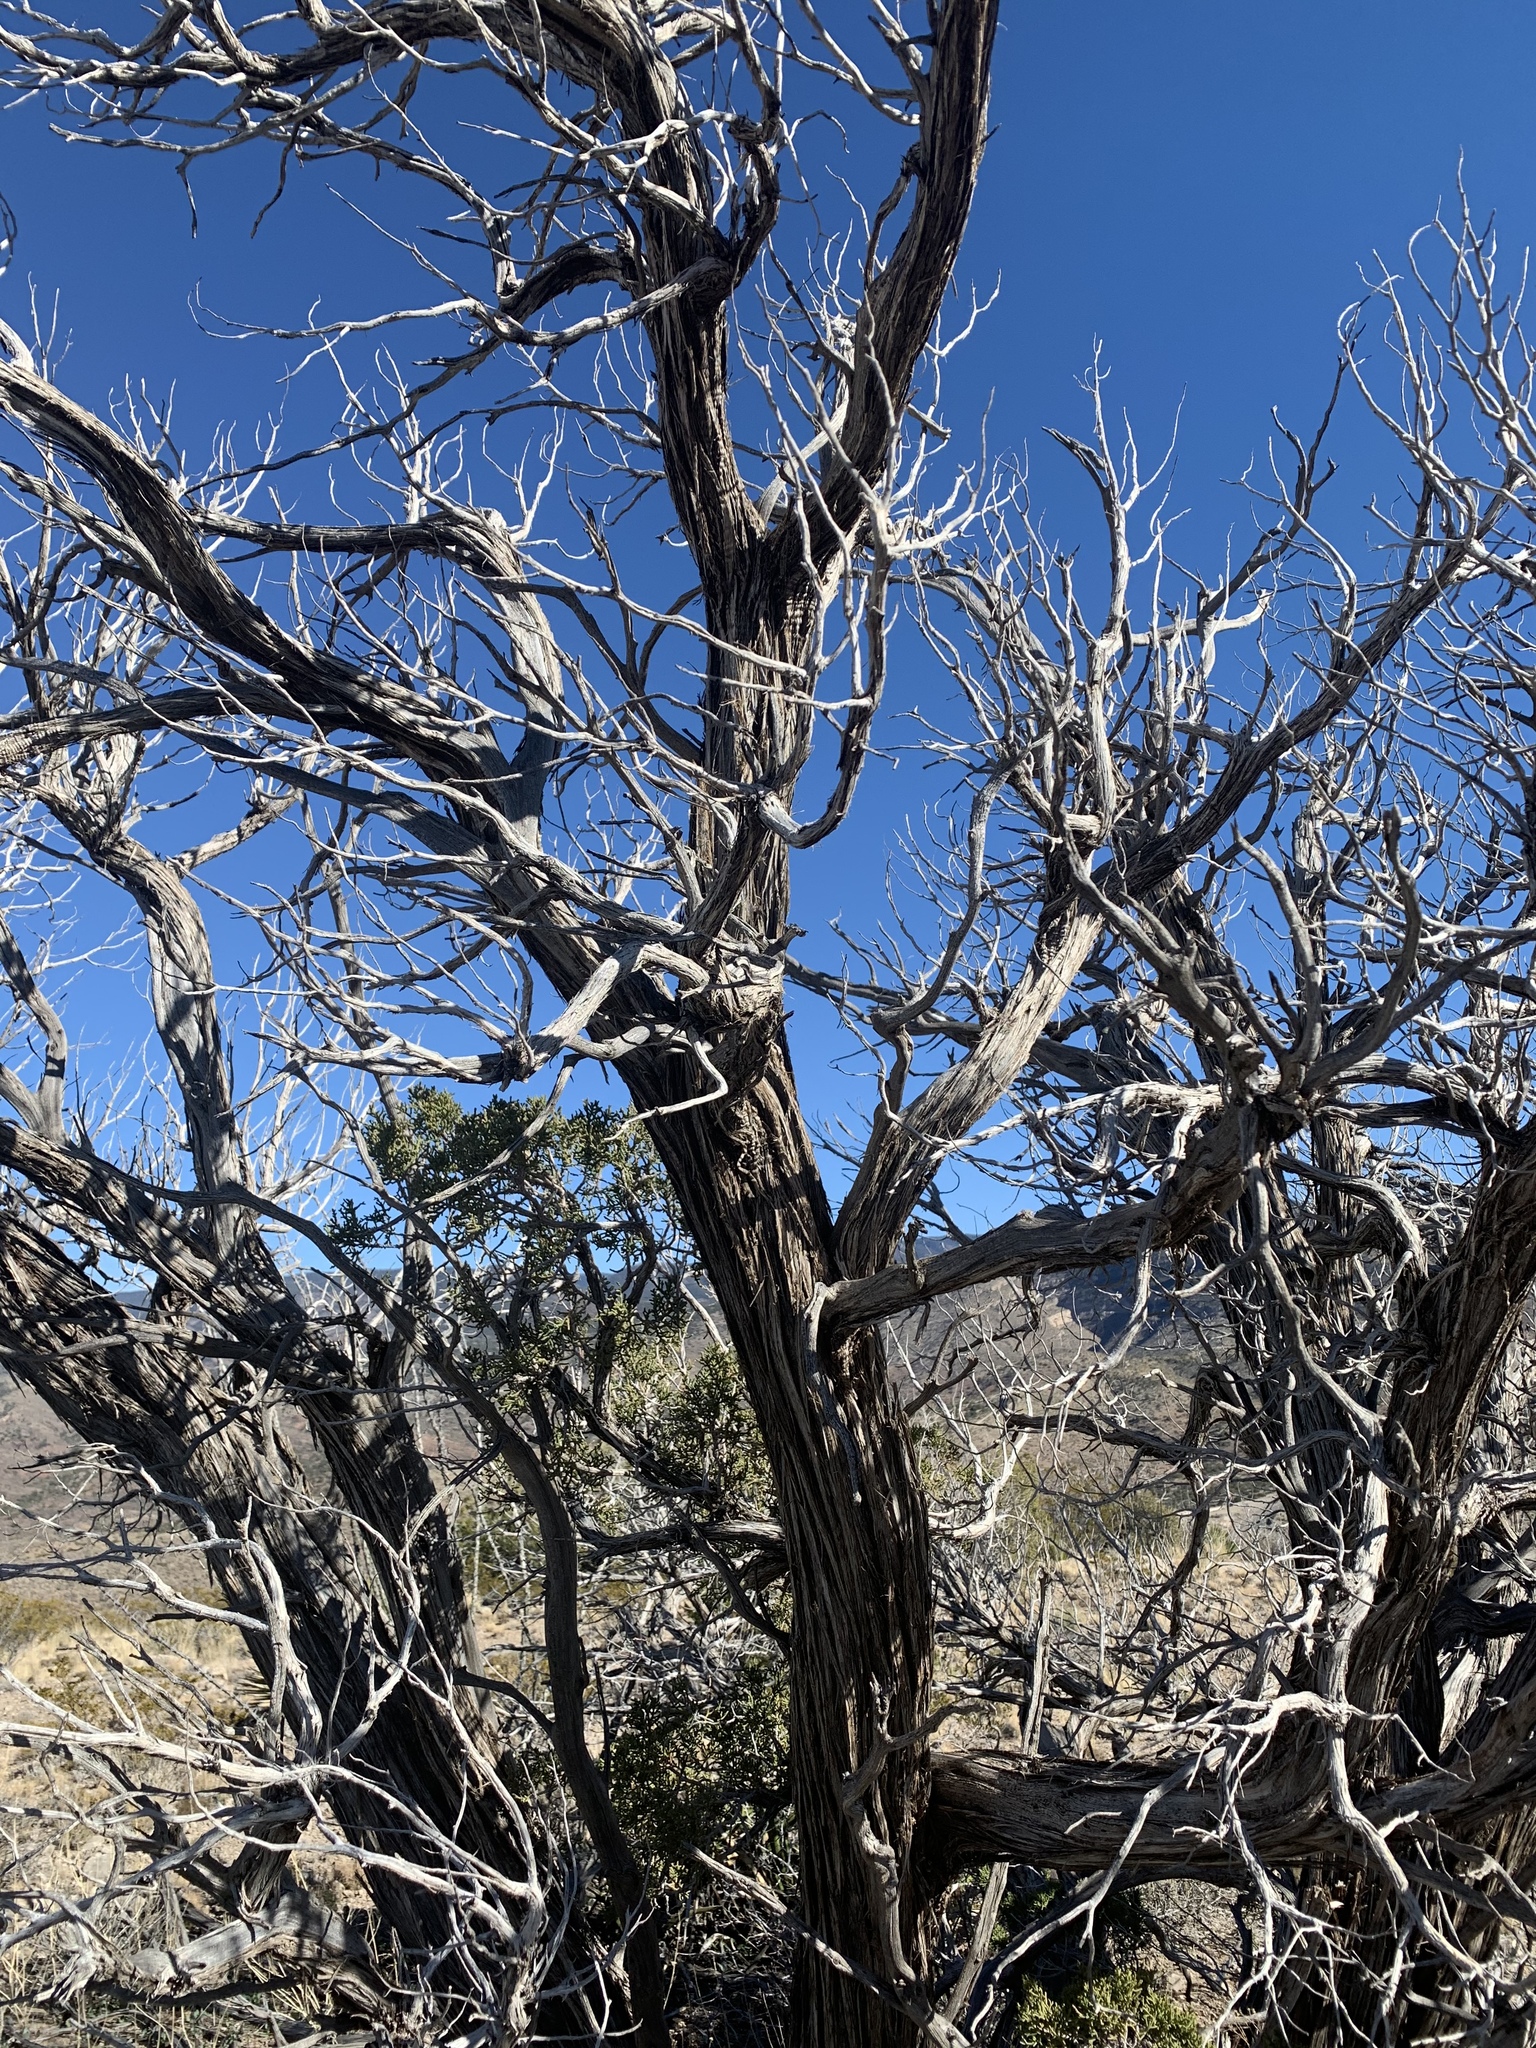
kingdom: Plantae
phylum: Tracheophyta
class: Pinopsida
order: Pinales
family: Cupressaceae
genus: Juniperus
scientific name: Juniperus monosperma
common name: One-seed juniper
